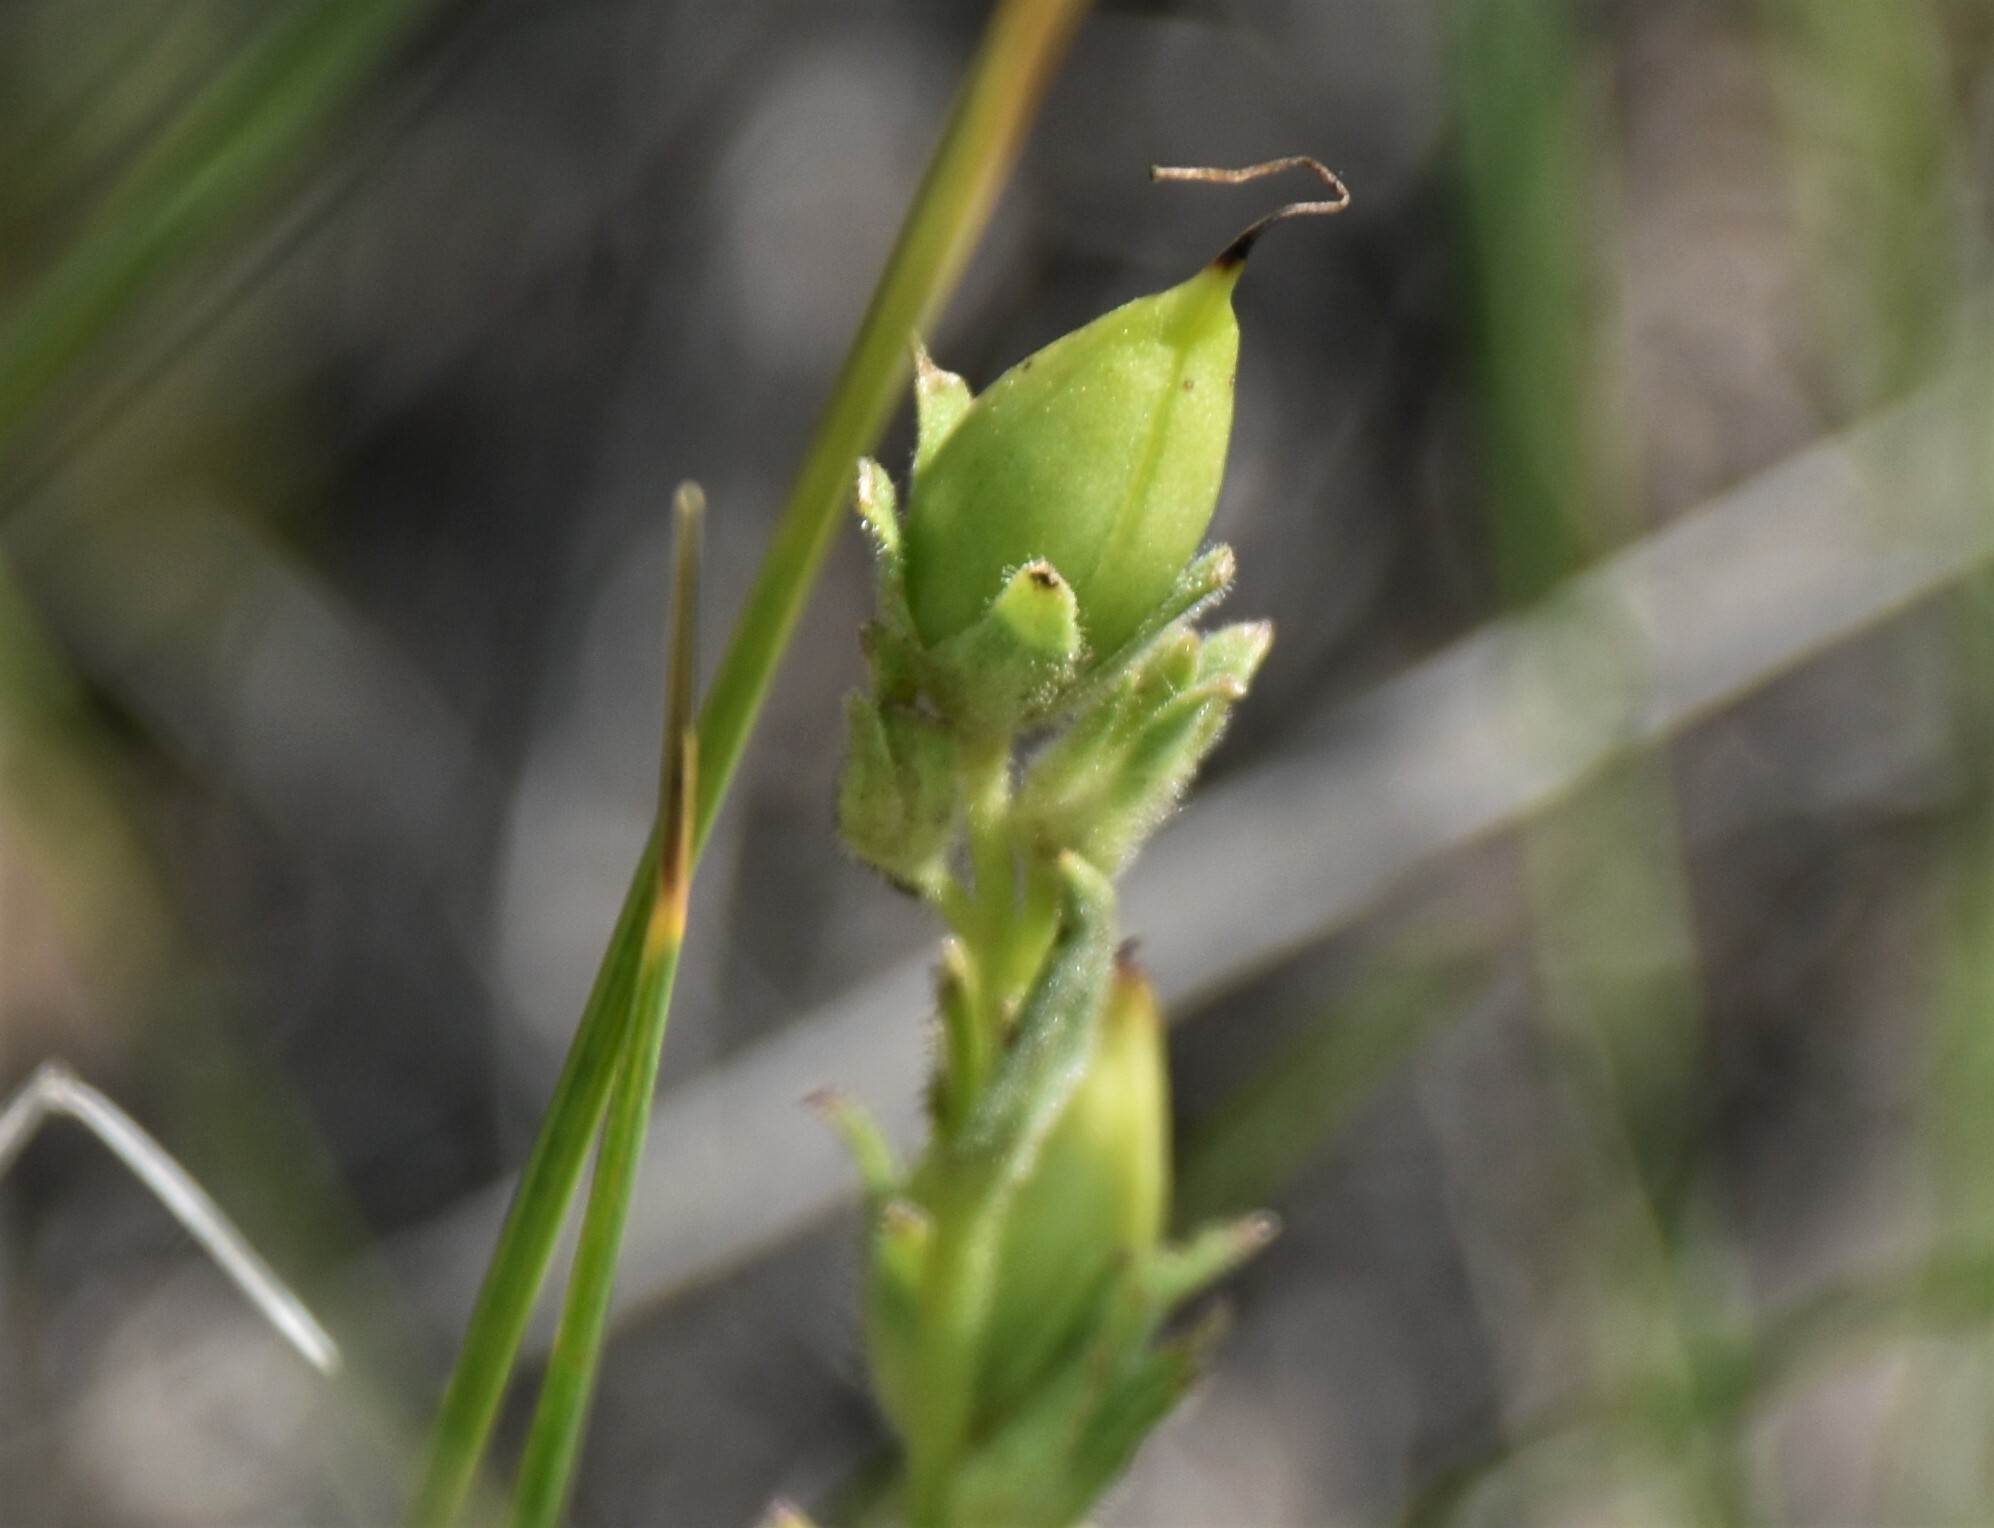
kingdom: Plantae
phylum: Tracheophyta
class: Magnoliopsida
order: Lamiales
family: Plantaginaceae
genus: Penstemon
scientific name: Penstemon albidus
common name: White beardtongue
